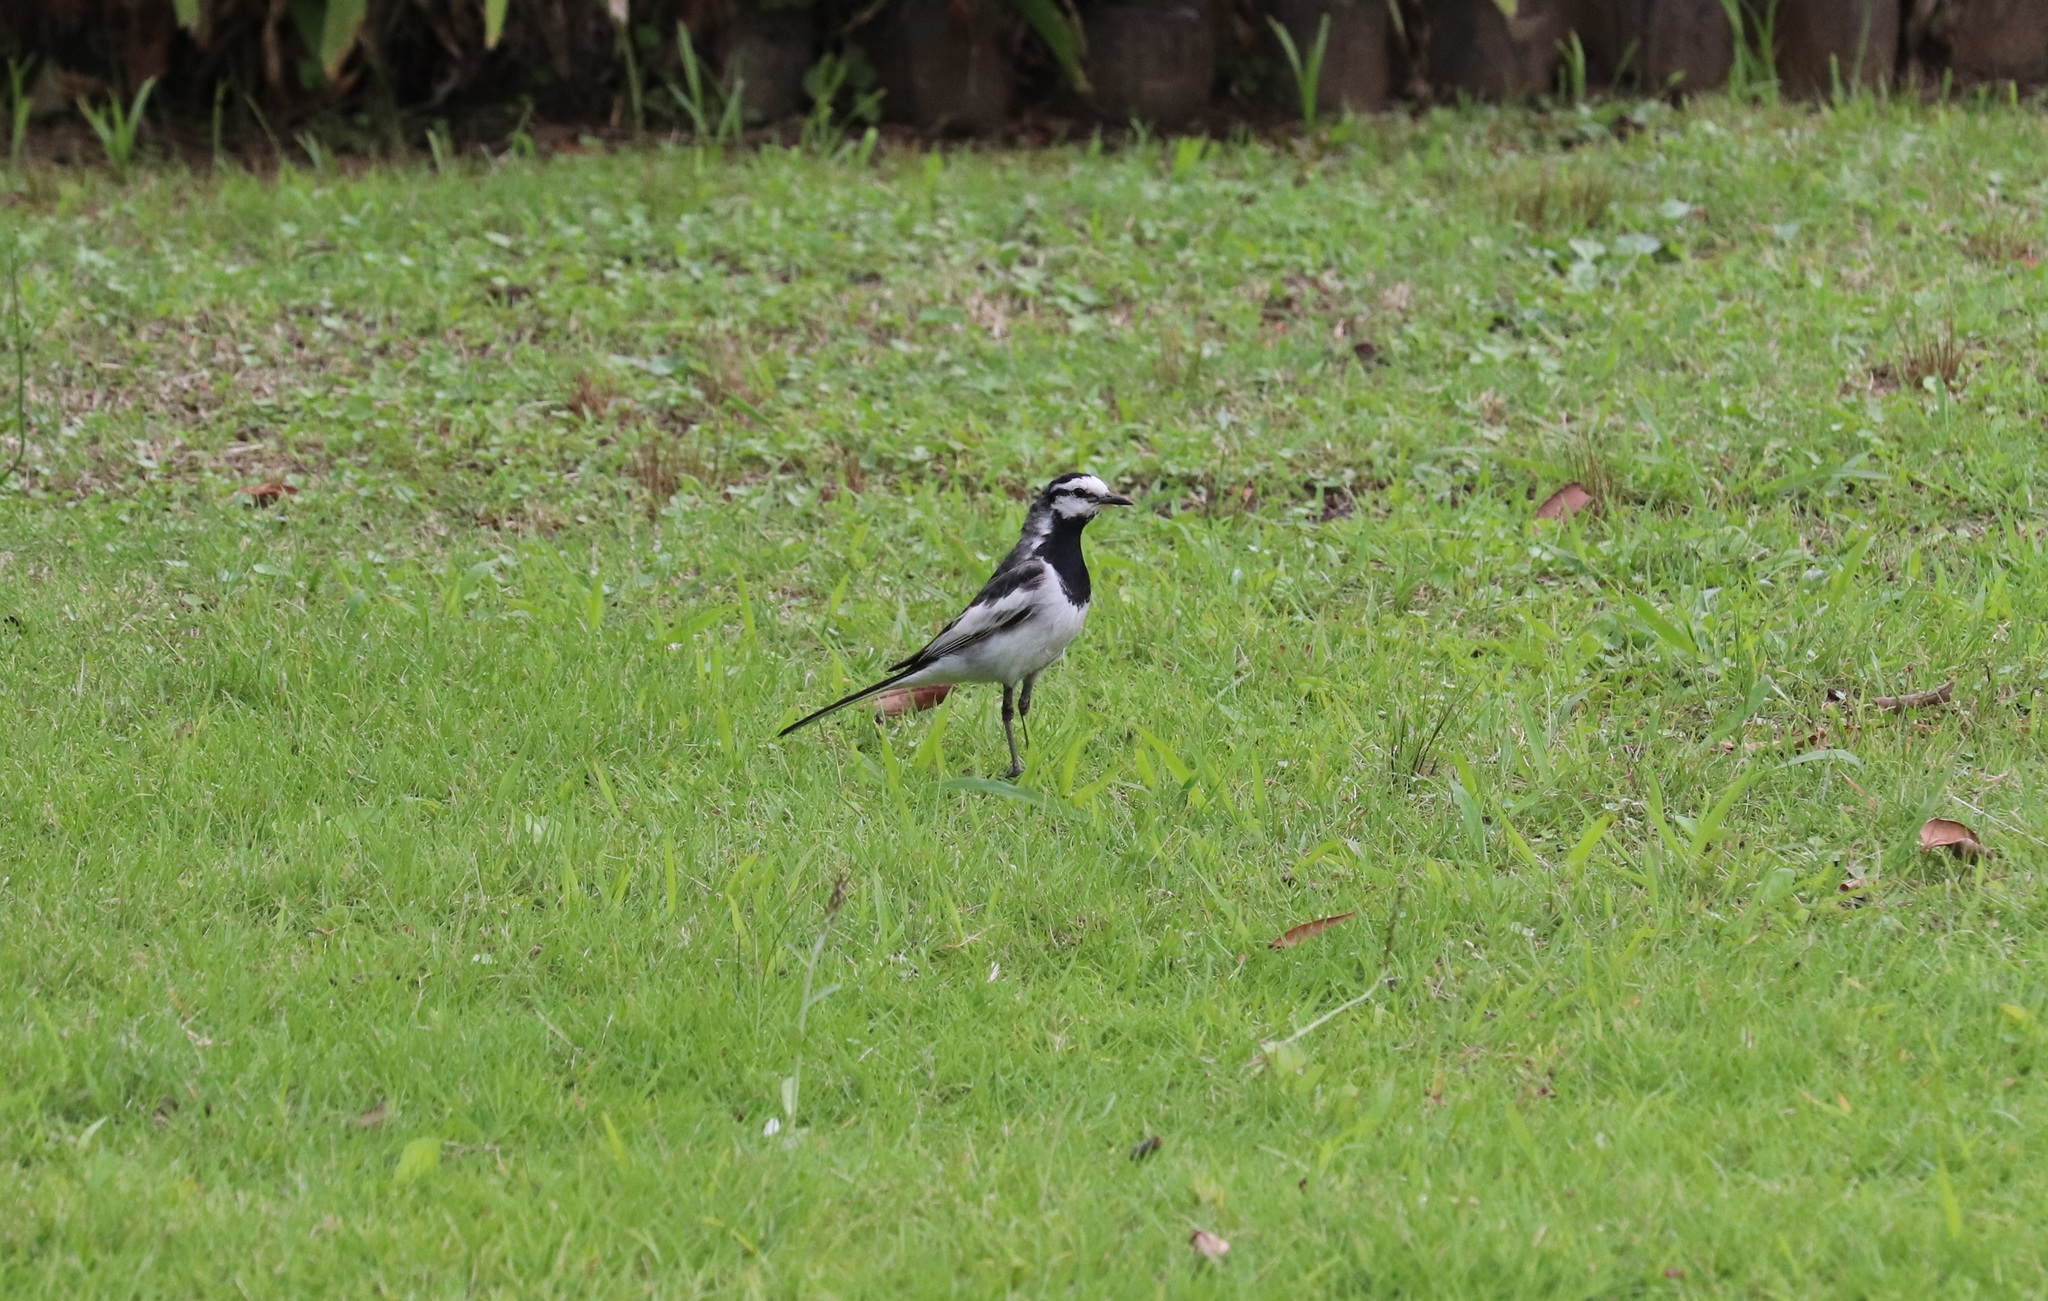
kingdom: Animalia
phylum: Chordata
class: Aves
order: Passeriformes
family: Motacillidae
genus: Motacilla
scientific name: Motacilla alba
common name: White wagtail
